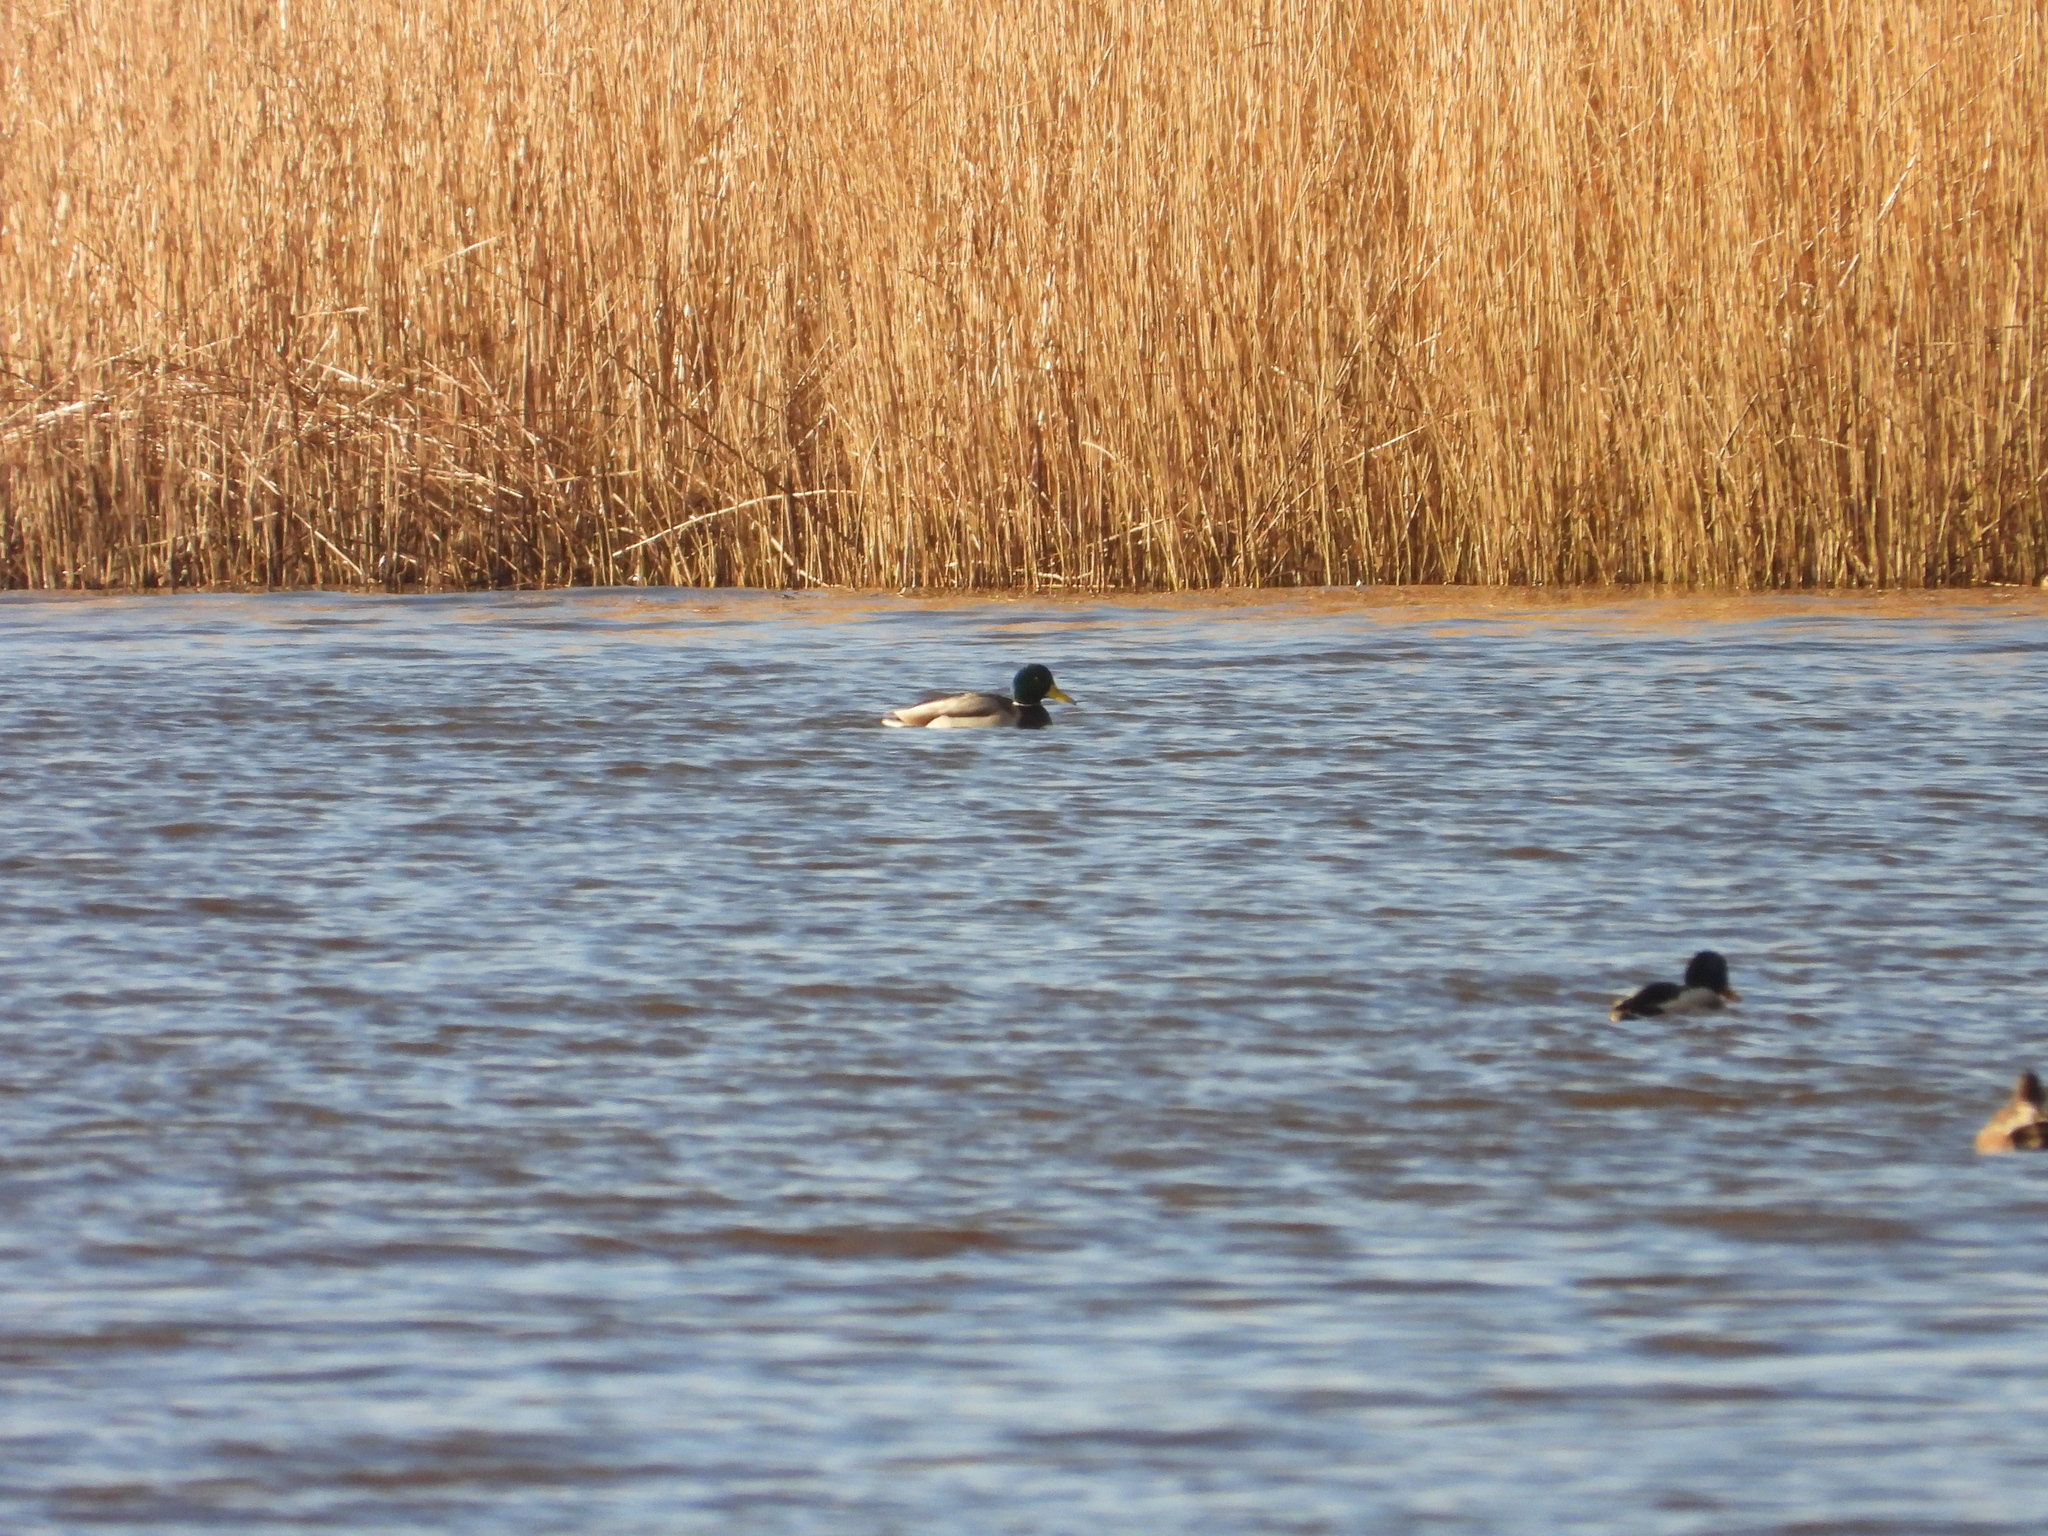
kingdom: Animalia
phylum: Chordata
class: Aves
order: Anseriformes
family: Anatidae
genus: Anas
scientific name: Anas platyrhynchos
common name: Mallard
